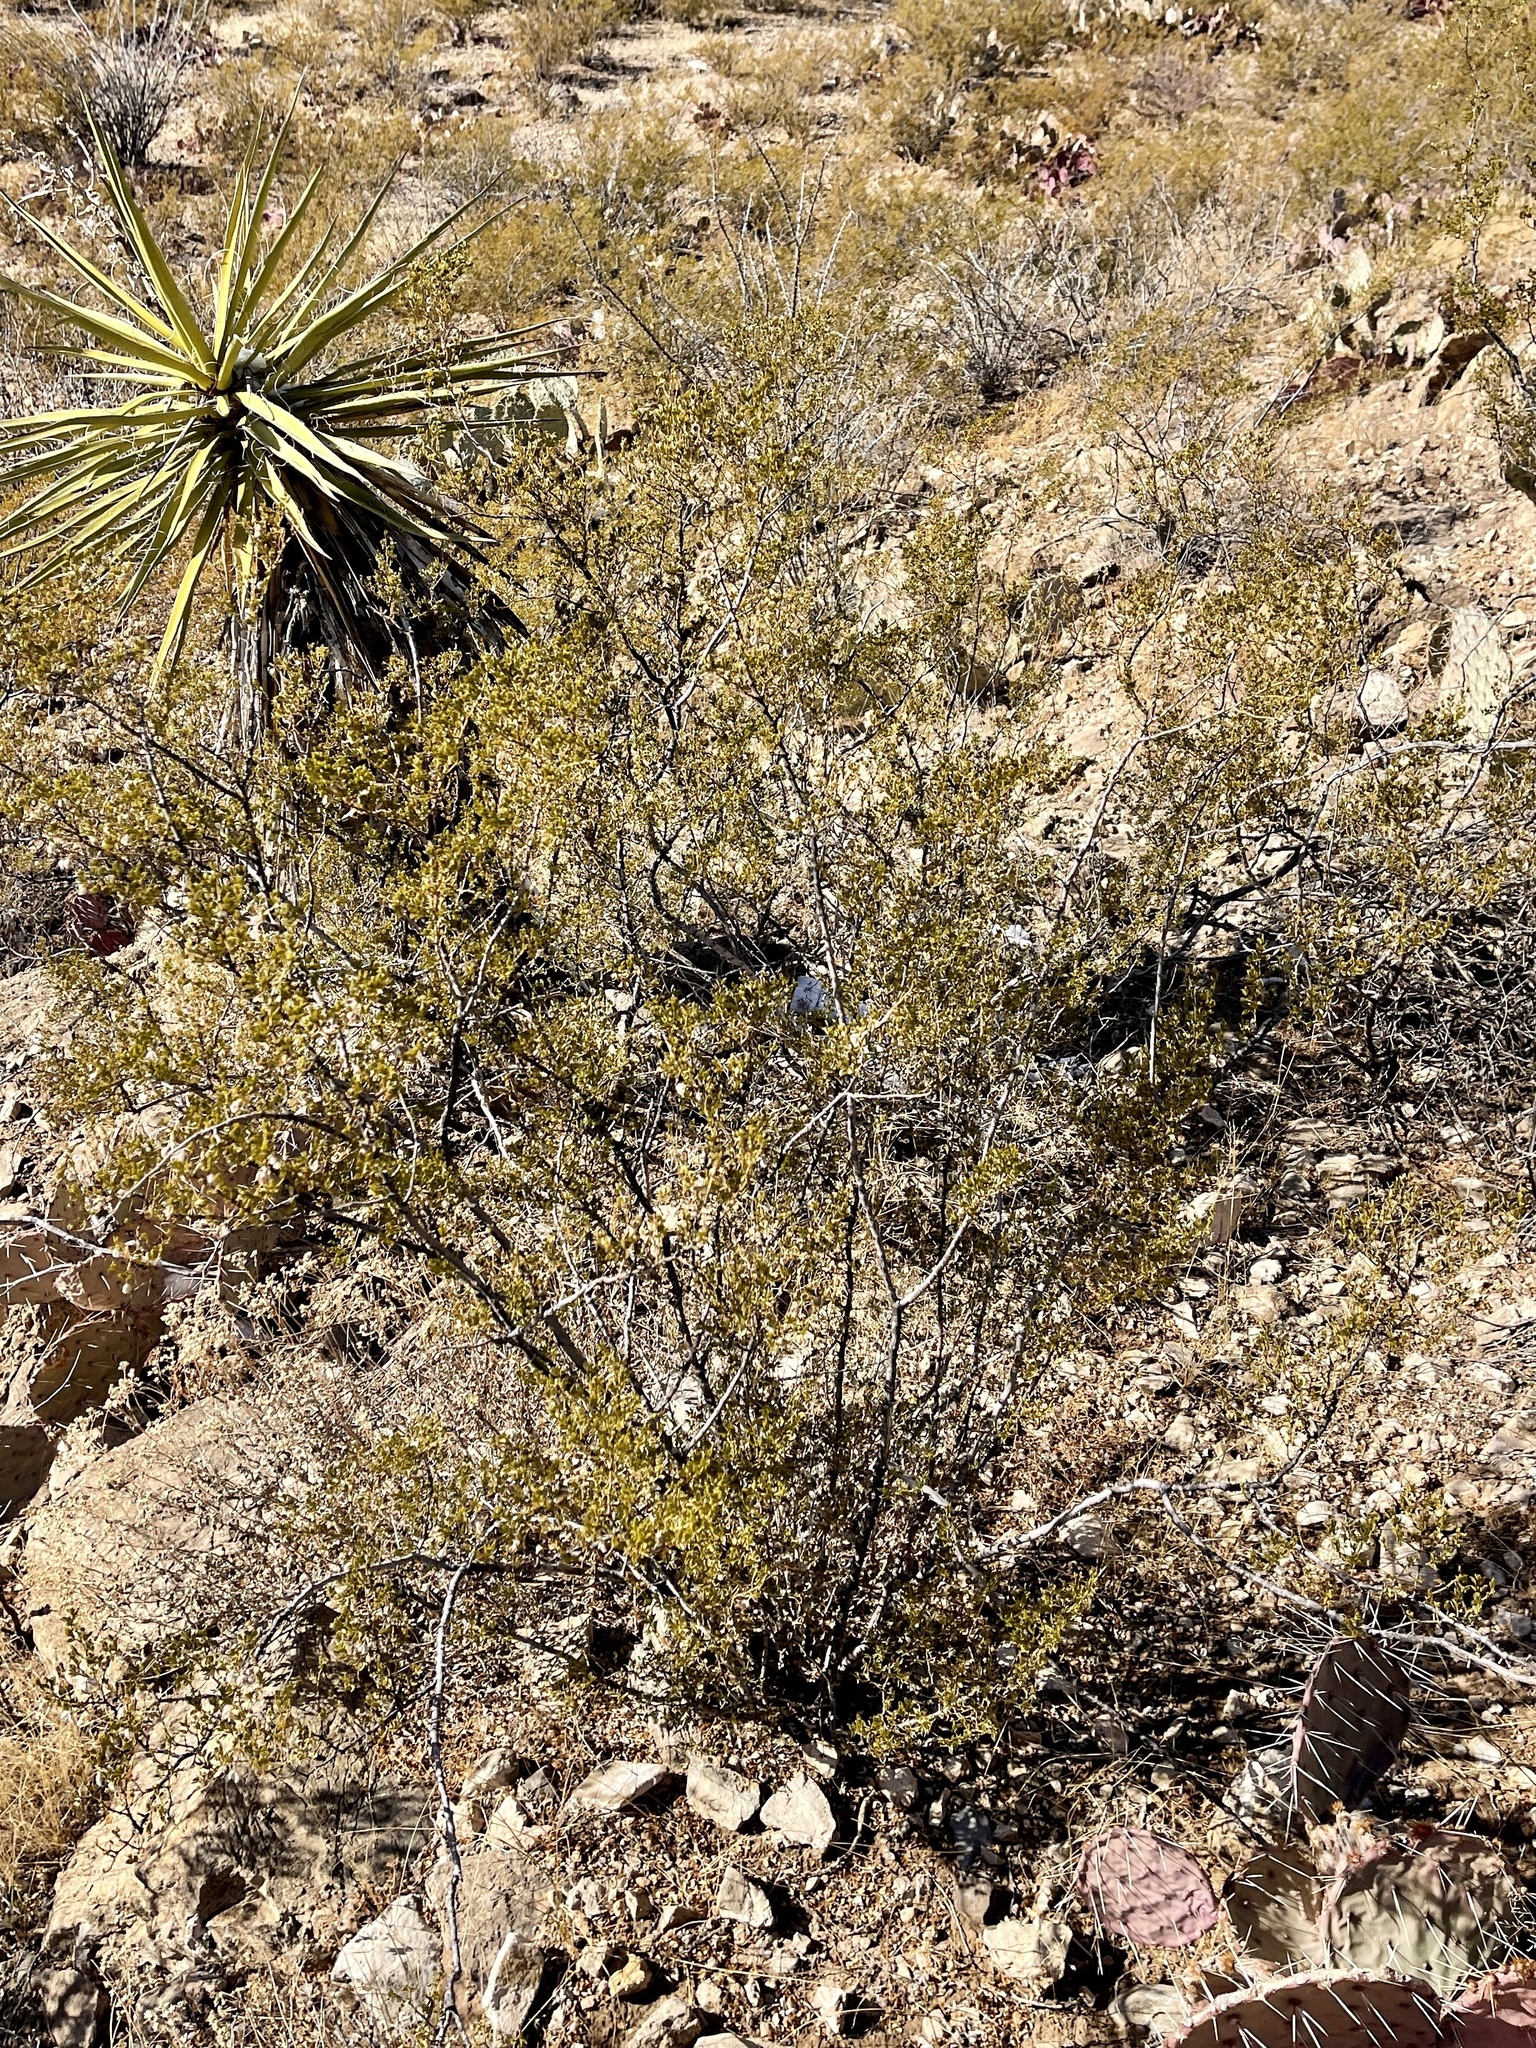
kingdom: Plantae
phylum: Tracheophyta
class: Magnoliopsida
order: Zygophyllales
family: Zygophyllaceae
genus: Larrea
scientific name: Larrea tridentata
